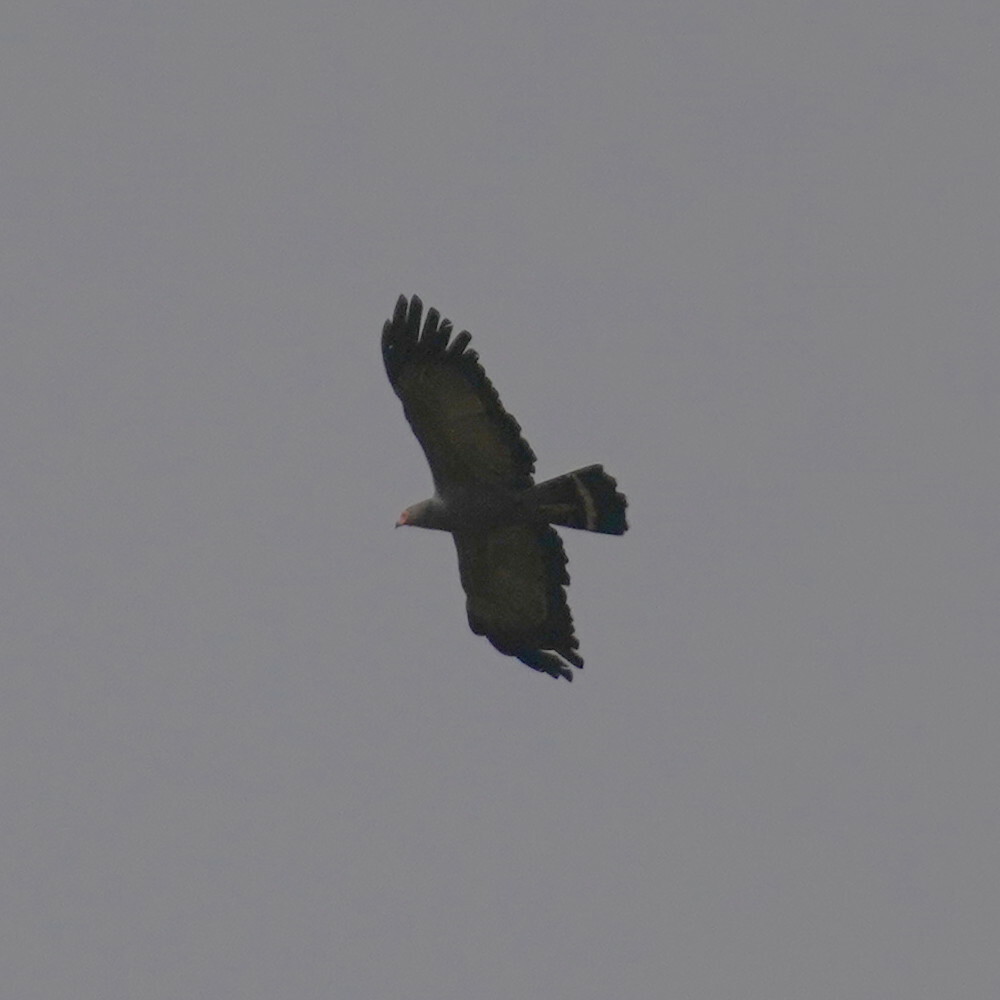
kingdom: Animalia
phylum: Chordata
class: Aves
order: Accipitriformes
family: Accipitridae
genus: Polyboroides
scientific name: Polyboroides typus
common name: African harrier-hawk
